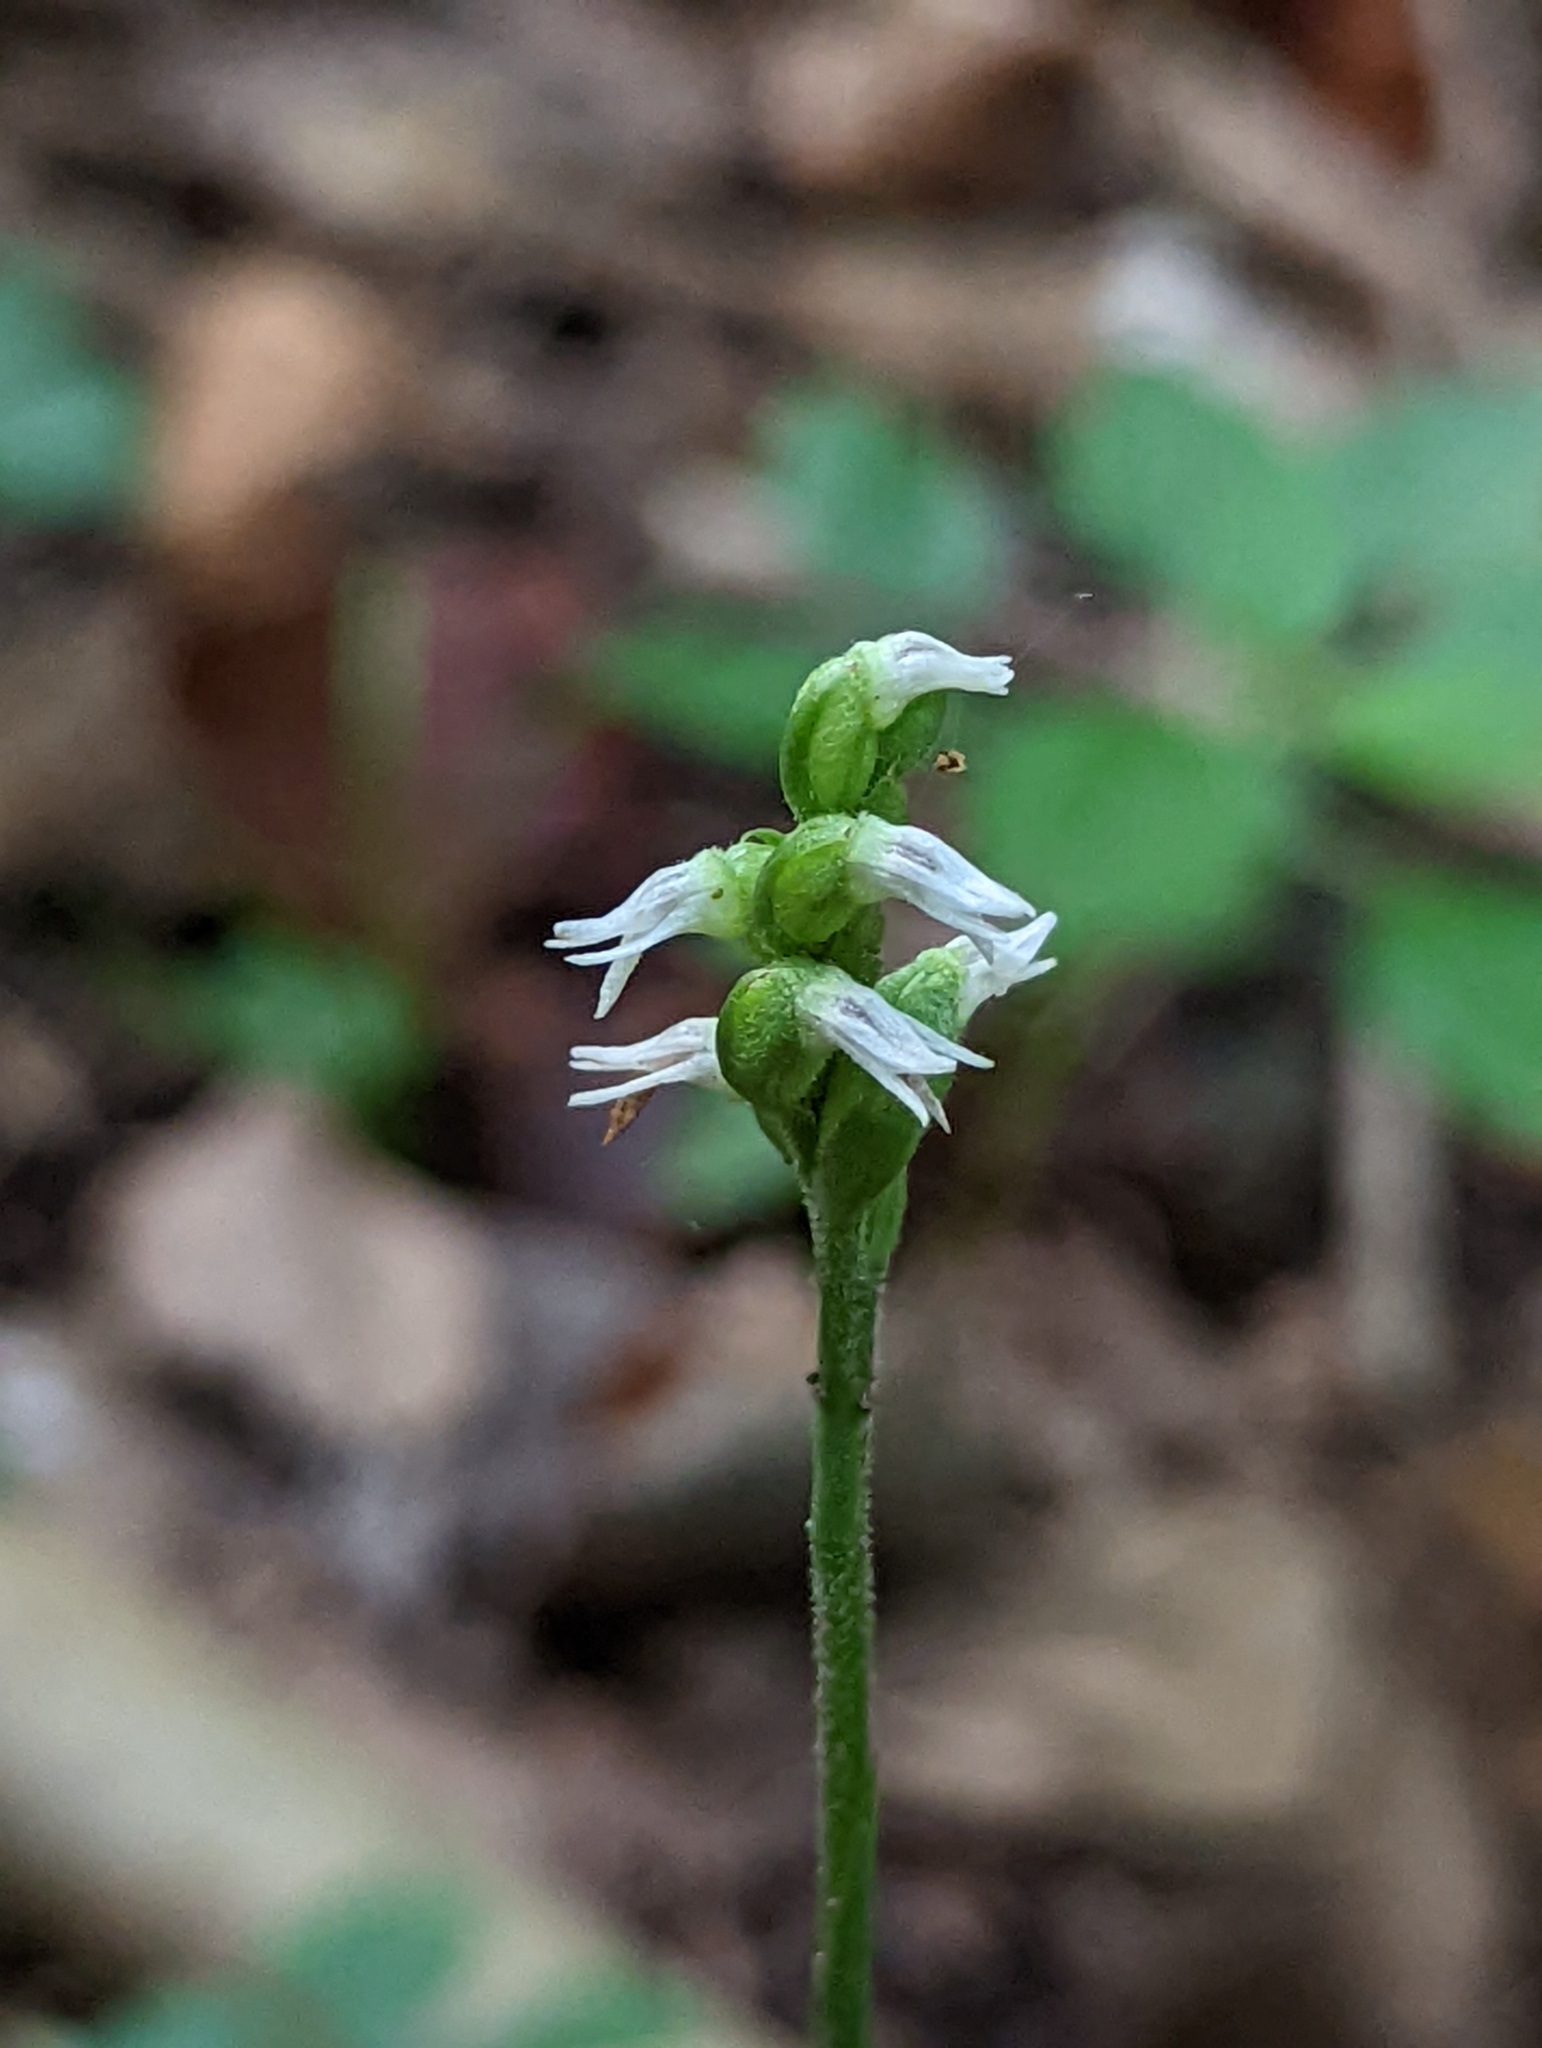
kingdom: Plantae
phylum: Tracheophyta
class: Liliopsida
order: Asparagales
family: Orchidaceae
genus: Spiranthes
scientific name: Spiranthes ovalis
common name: October ladies'-tresses
